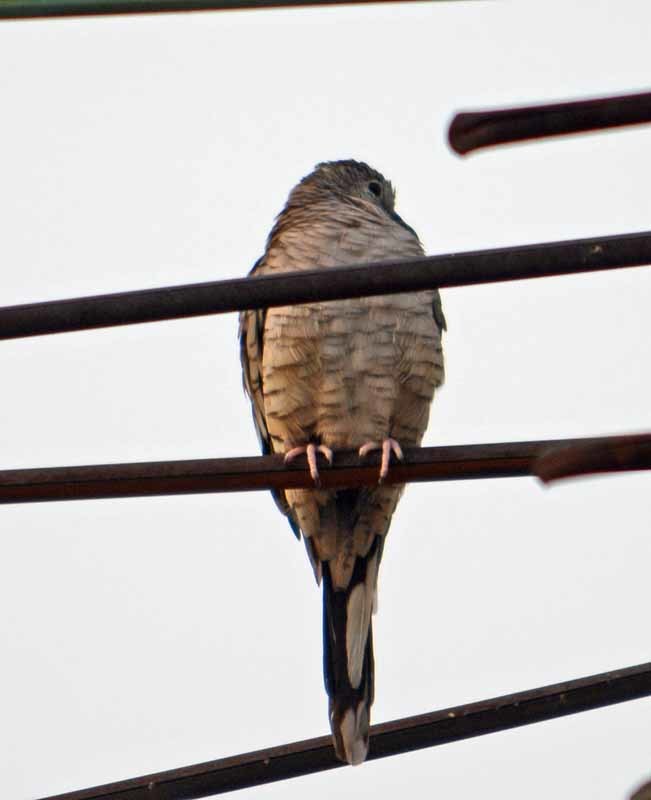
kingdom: Animalia
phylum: Chordata
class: Aves
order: Columbiformes
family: Columbidae
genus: Columbina
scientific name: Columbina inca
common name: Inca dove
